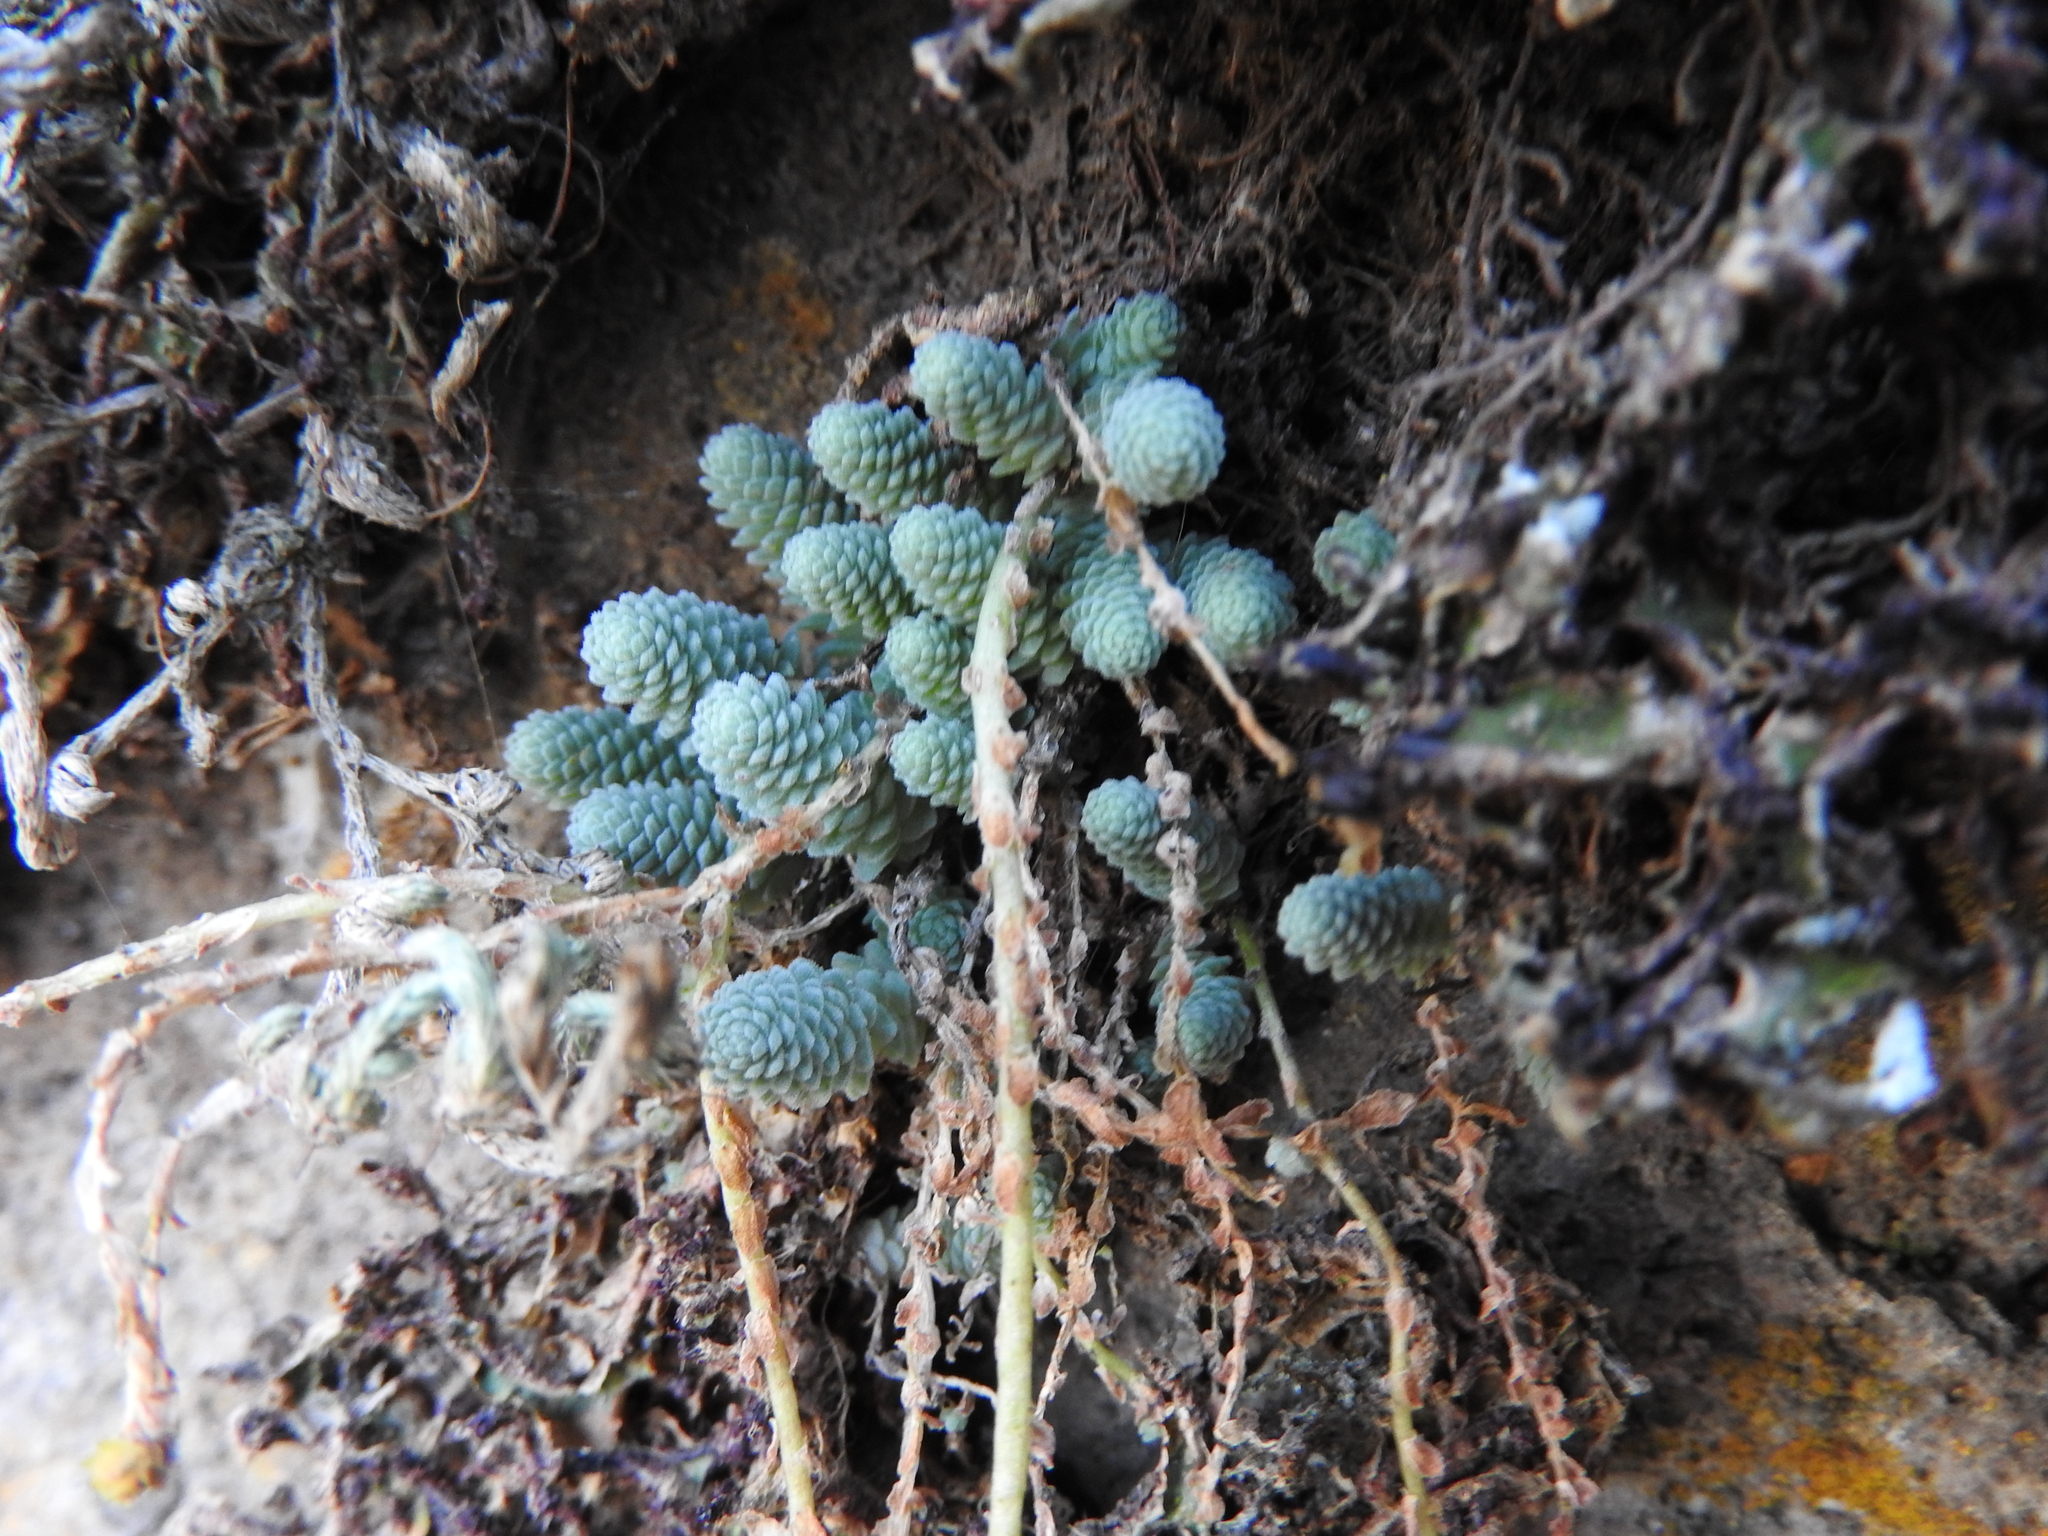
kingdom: Plantae
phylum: Tracheophyta
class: Magnoliopsida
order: Saxifragales
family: Crassulaceae
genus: Sedum
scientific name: Sedum greggii
